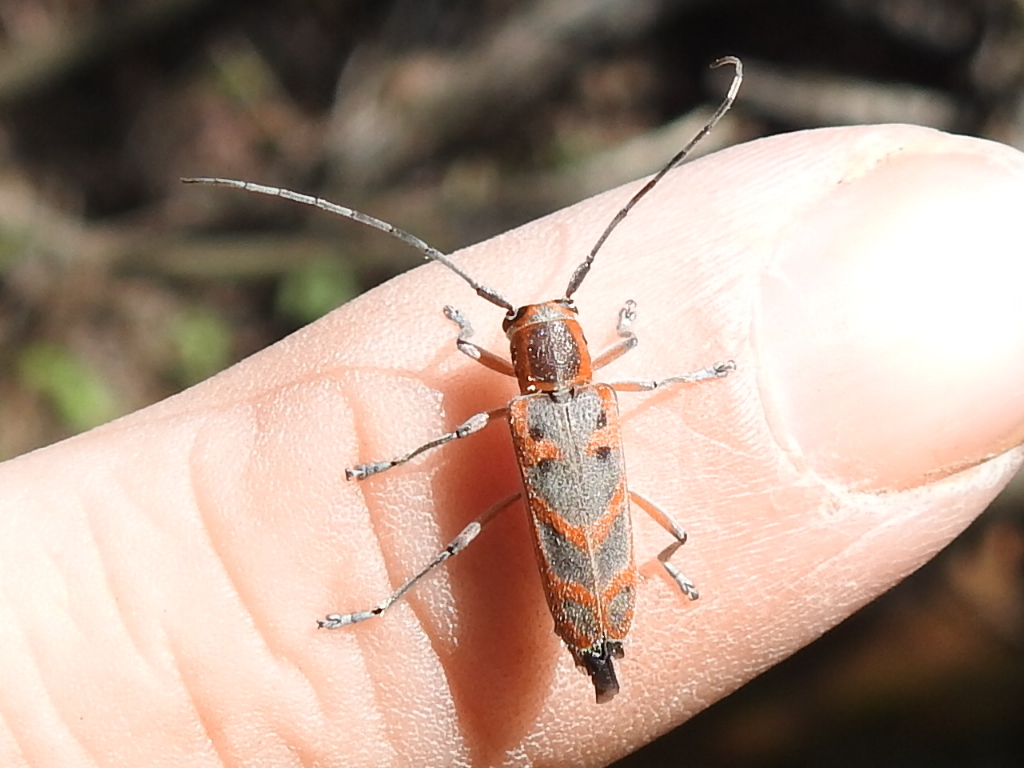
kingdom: Animalia
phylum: Arthropoda
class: Insecta
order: Coleoptera
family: Cerambycidae
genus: Saperda
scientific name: Saperda tridentata
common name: Elm borer
